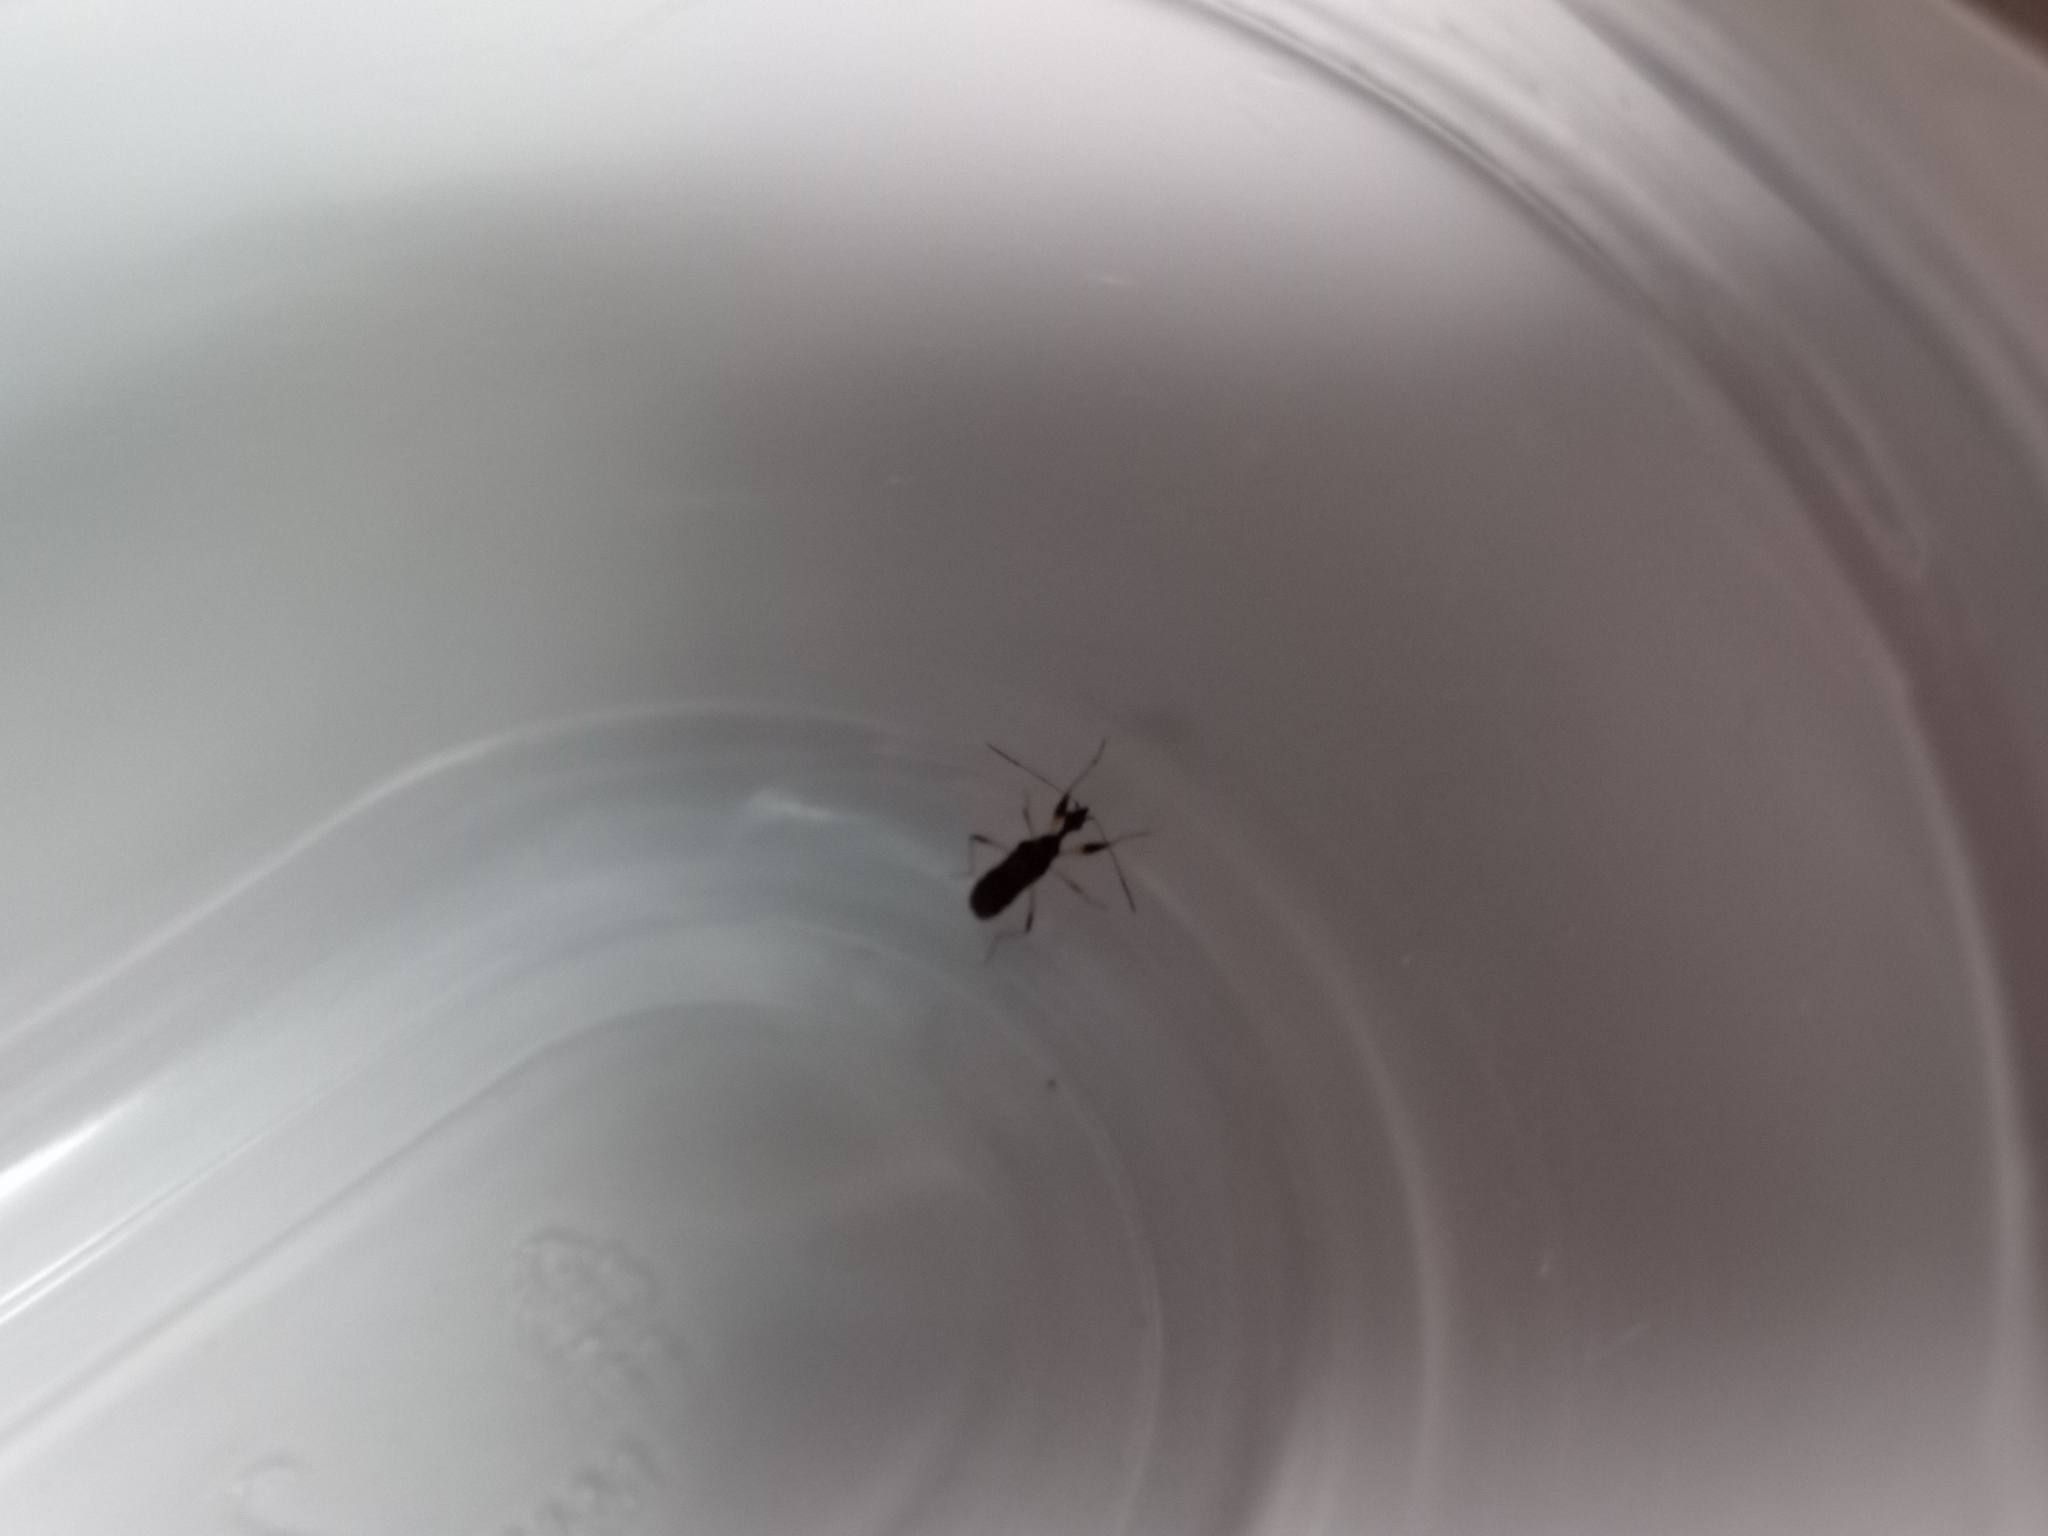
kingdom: Animalia
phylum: Arthropoda
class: Insecta
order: Hemiptera
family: Rhyparochromidae
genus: Myodocha
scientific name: Myodocha serripes
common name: Long-necked seed bug
